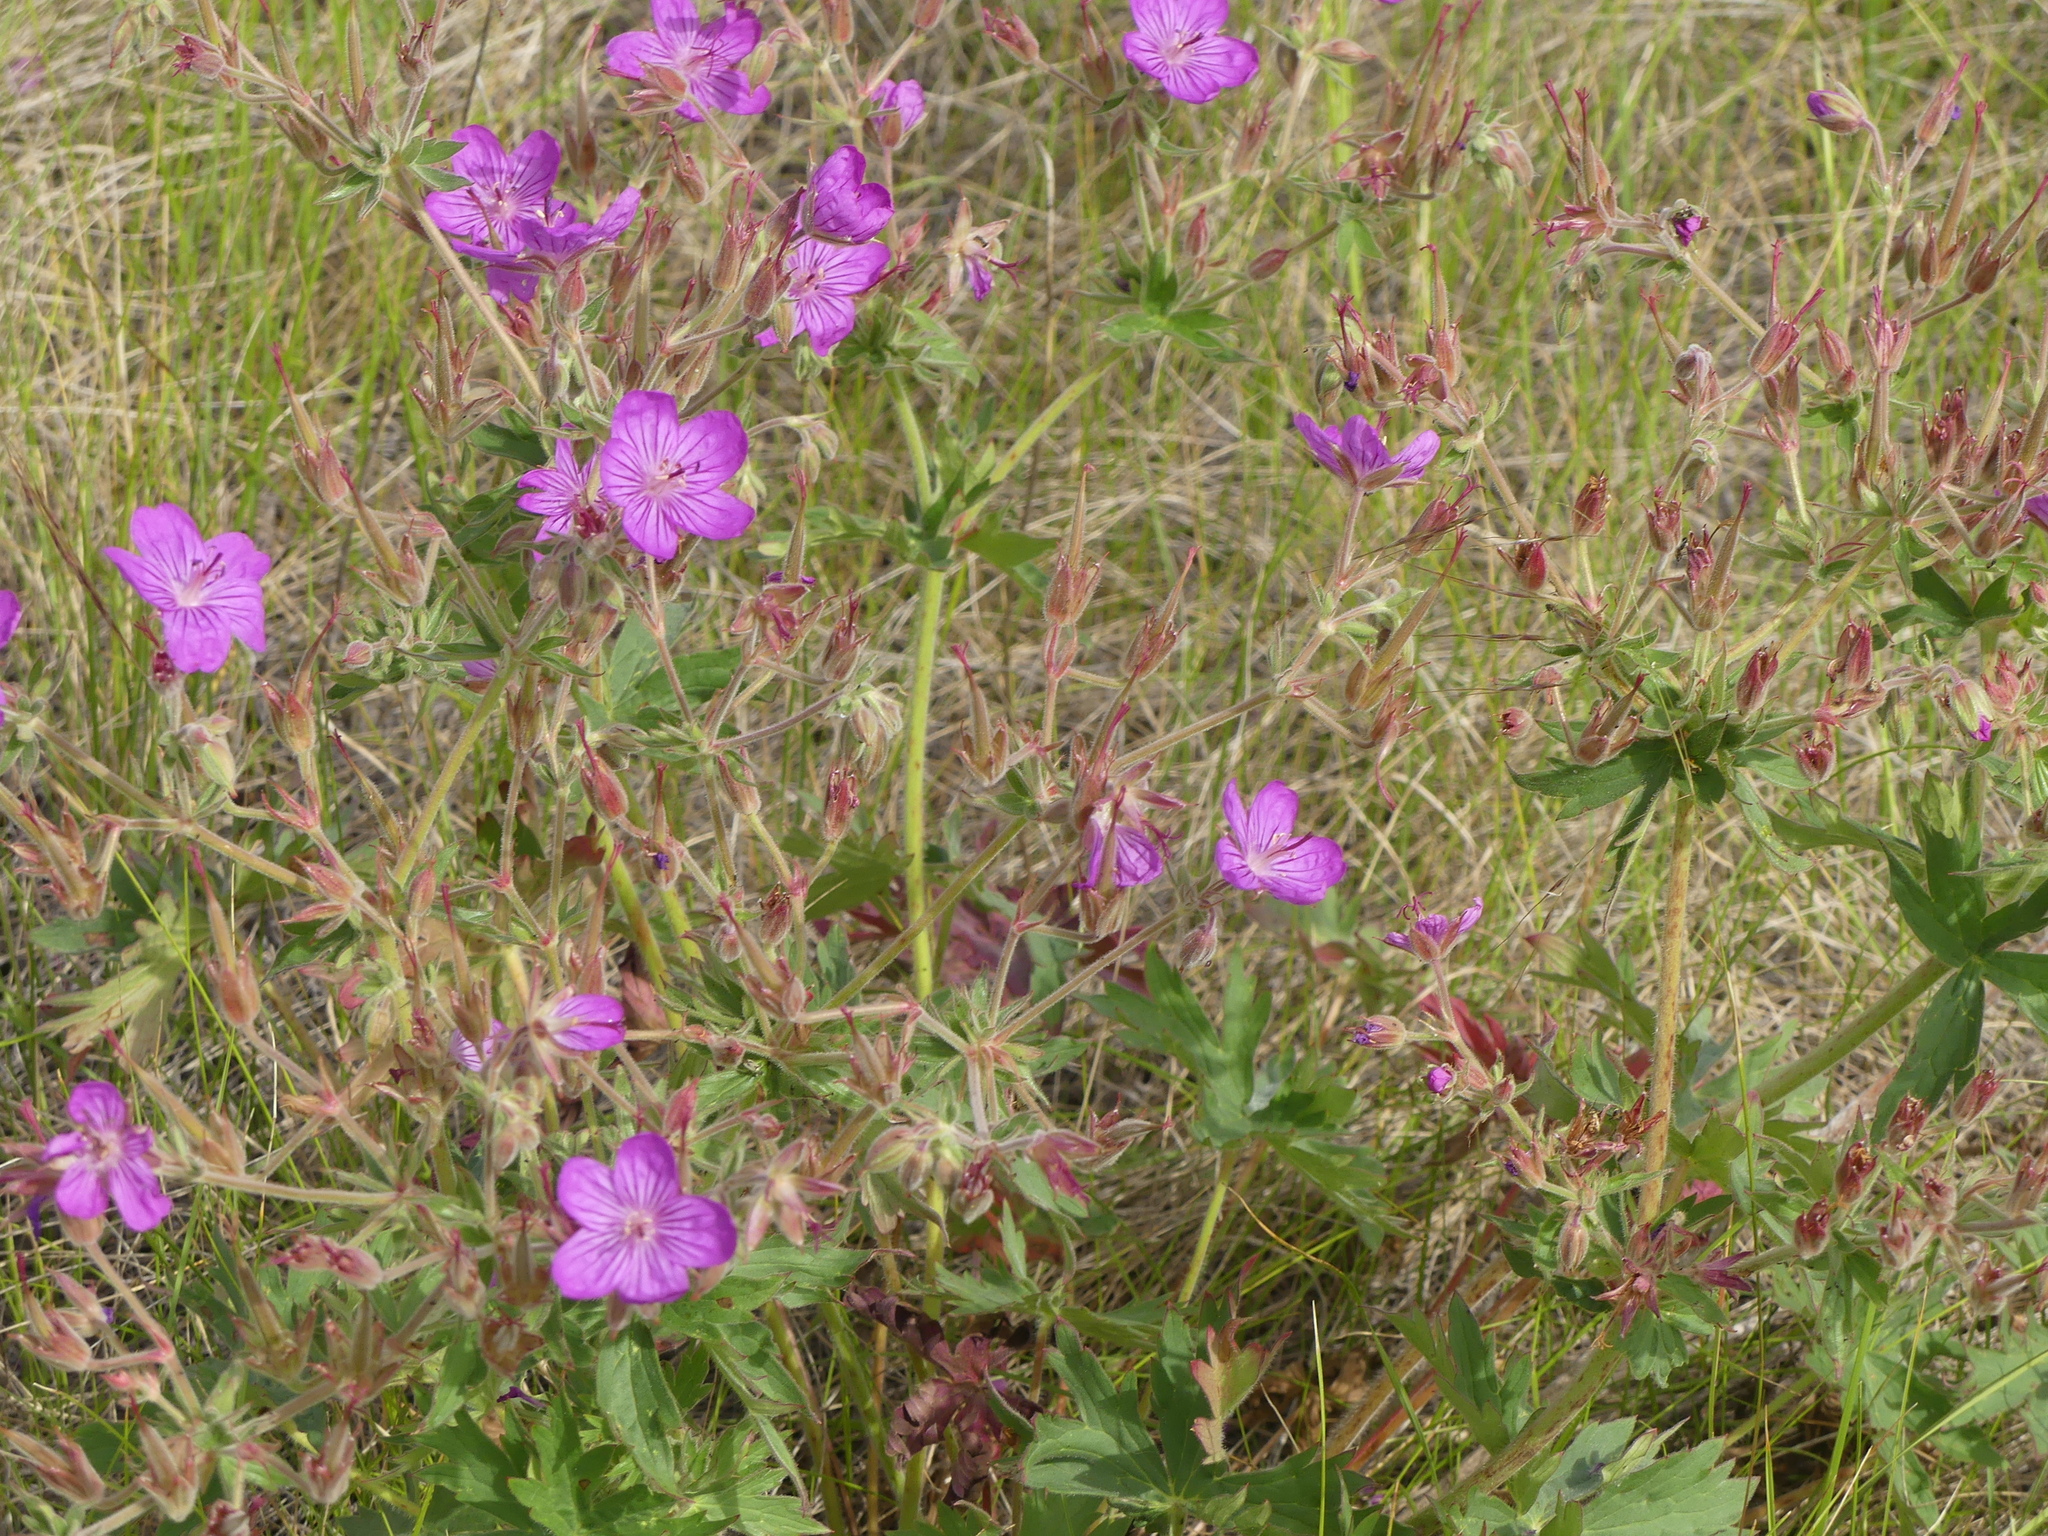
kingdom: Plantae
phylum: Tracheophyta
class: Magnoliopsida
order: Geraniales
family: Geraniaceae
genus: Geranium
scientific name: Geranium viscosissimum
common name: Purple geranium
